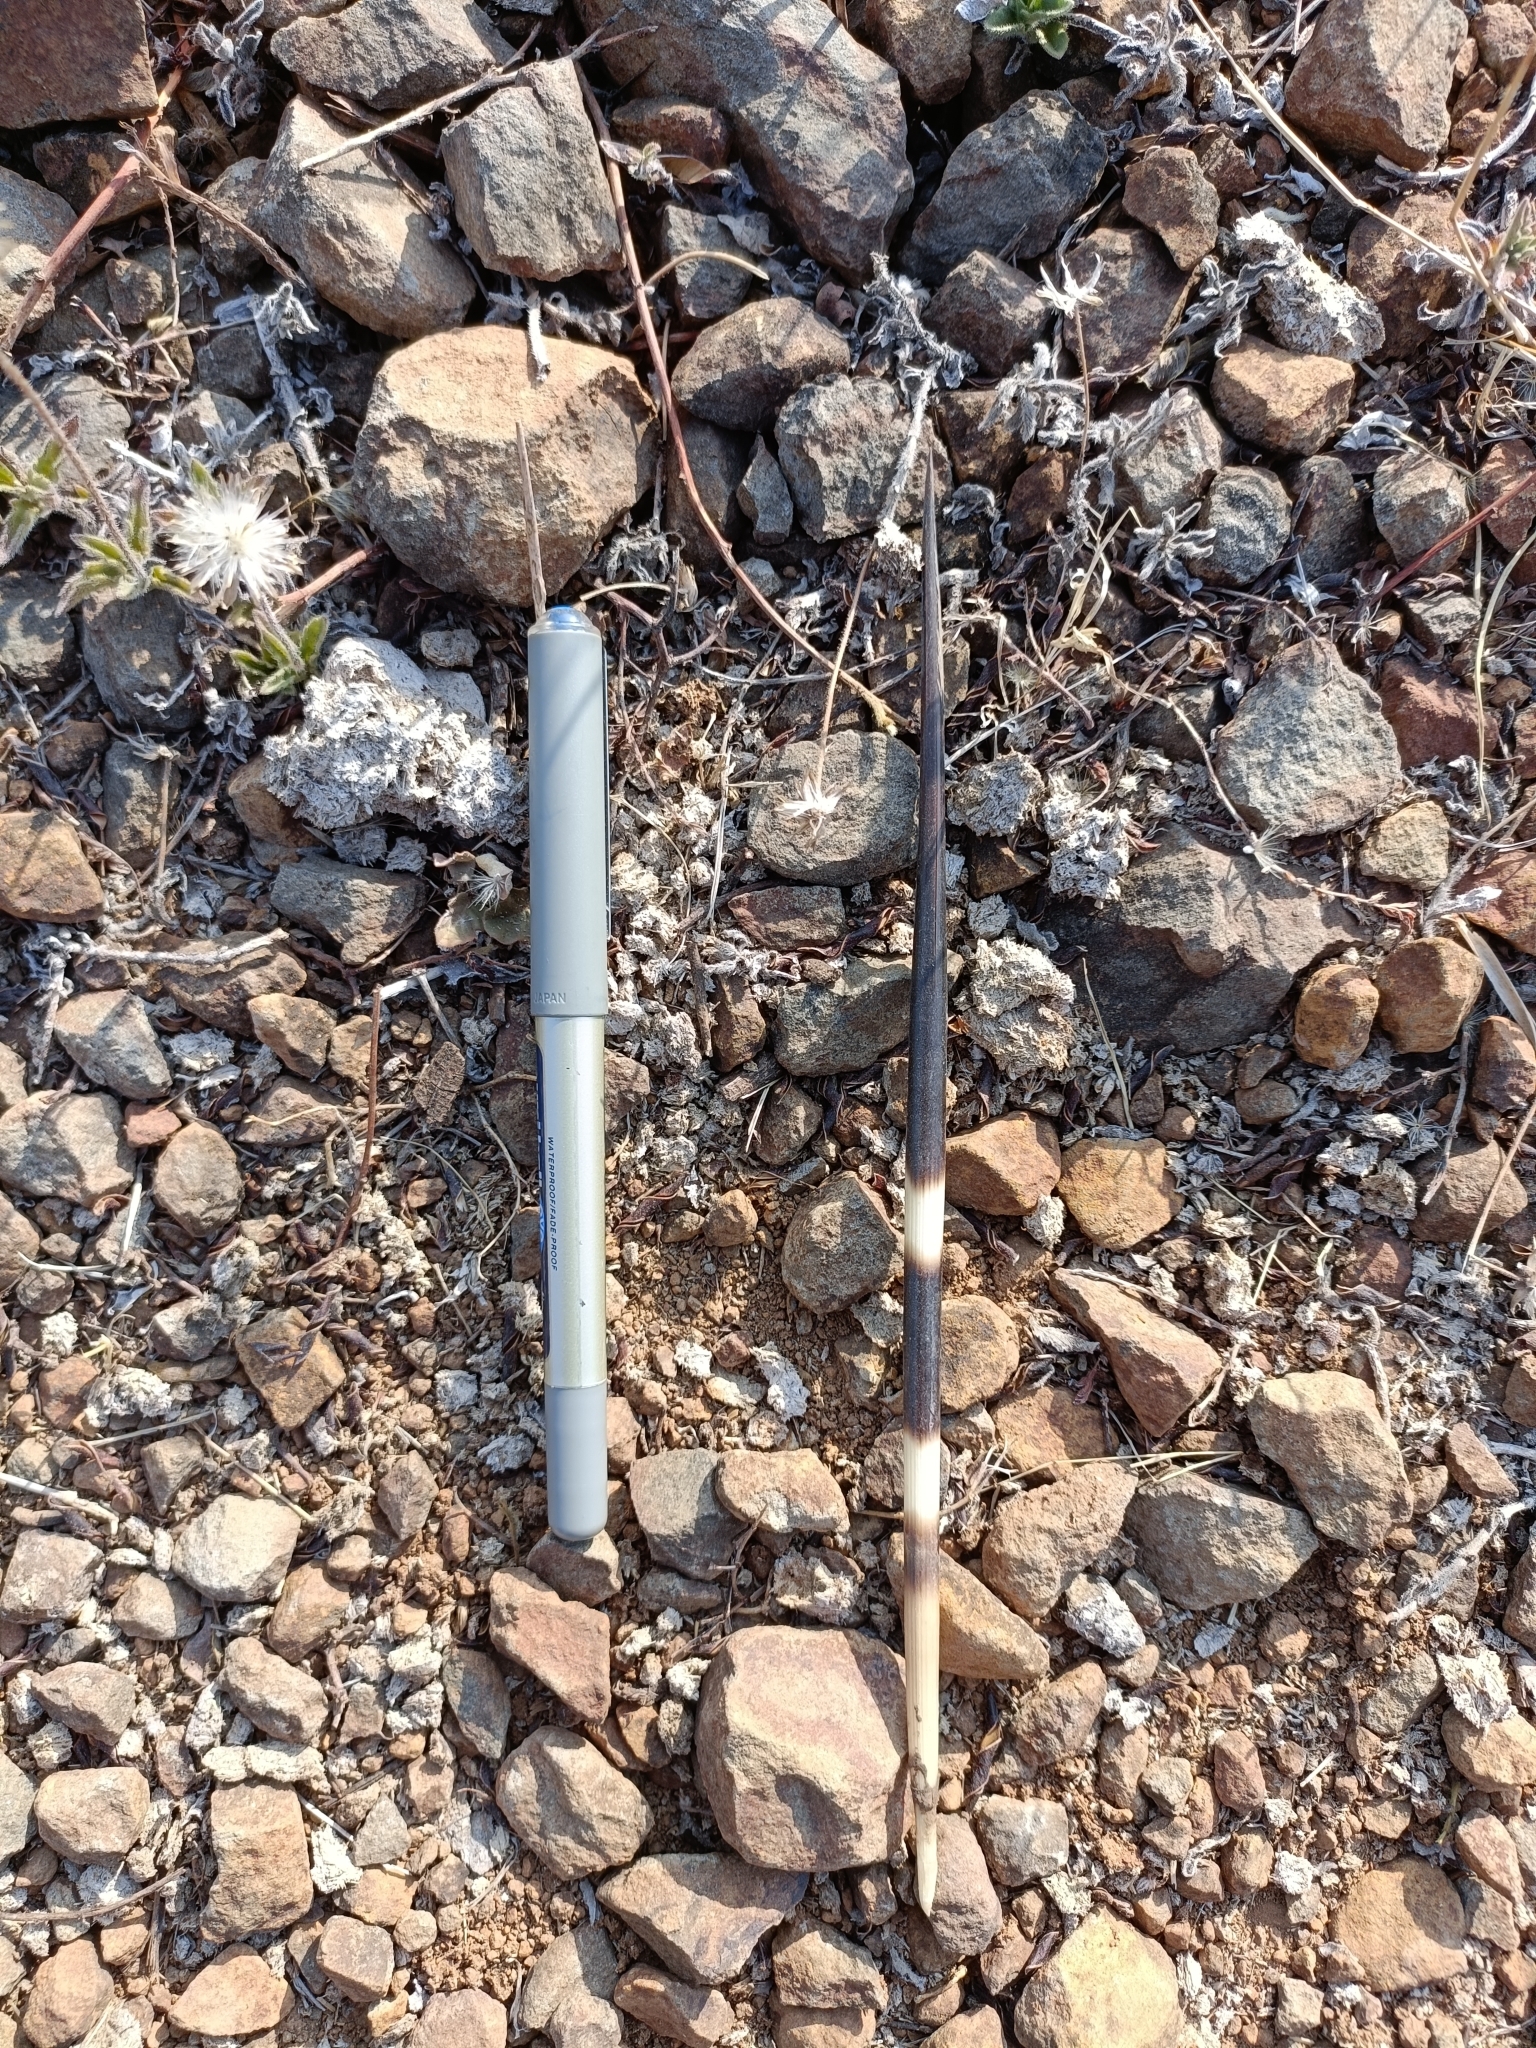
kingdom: Animalia
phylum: Chordata
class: Mammalia
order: Rodentia
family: Hystricidae
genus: Hystrix
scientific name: Hystrix indica
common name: Indian crested porcupine
